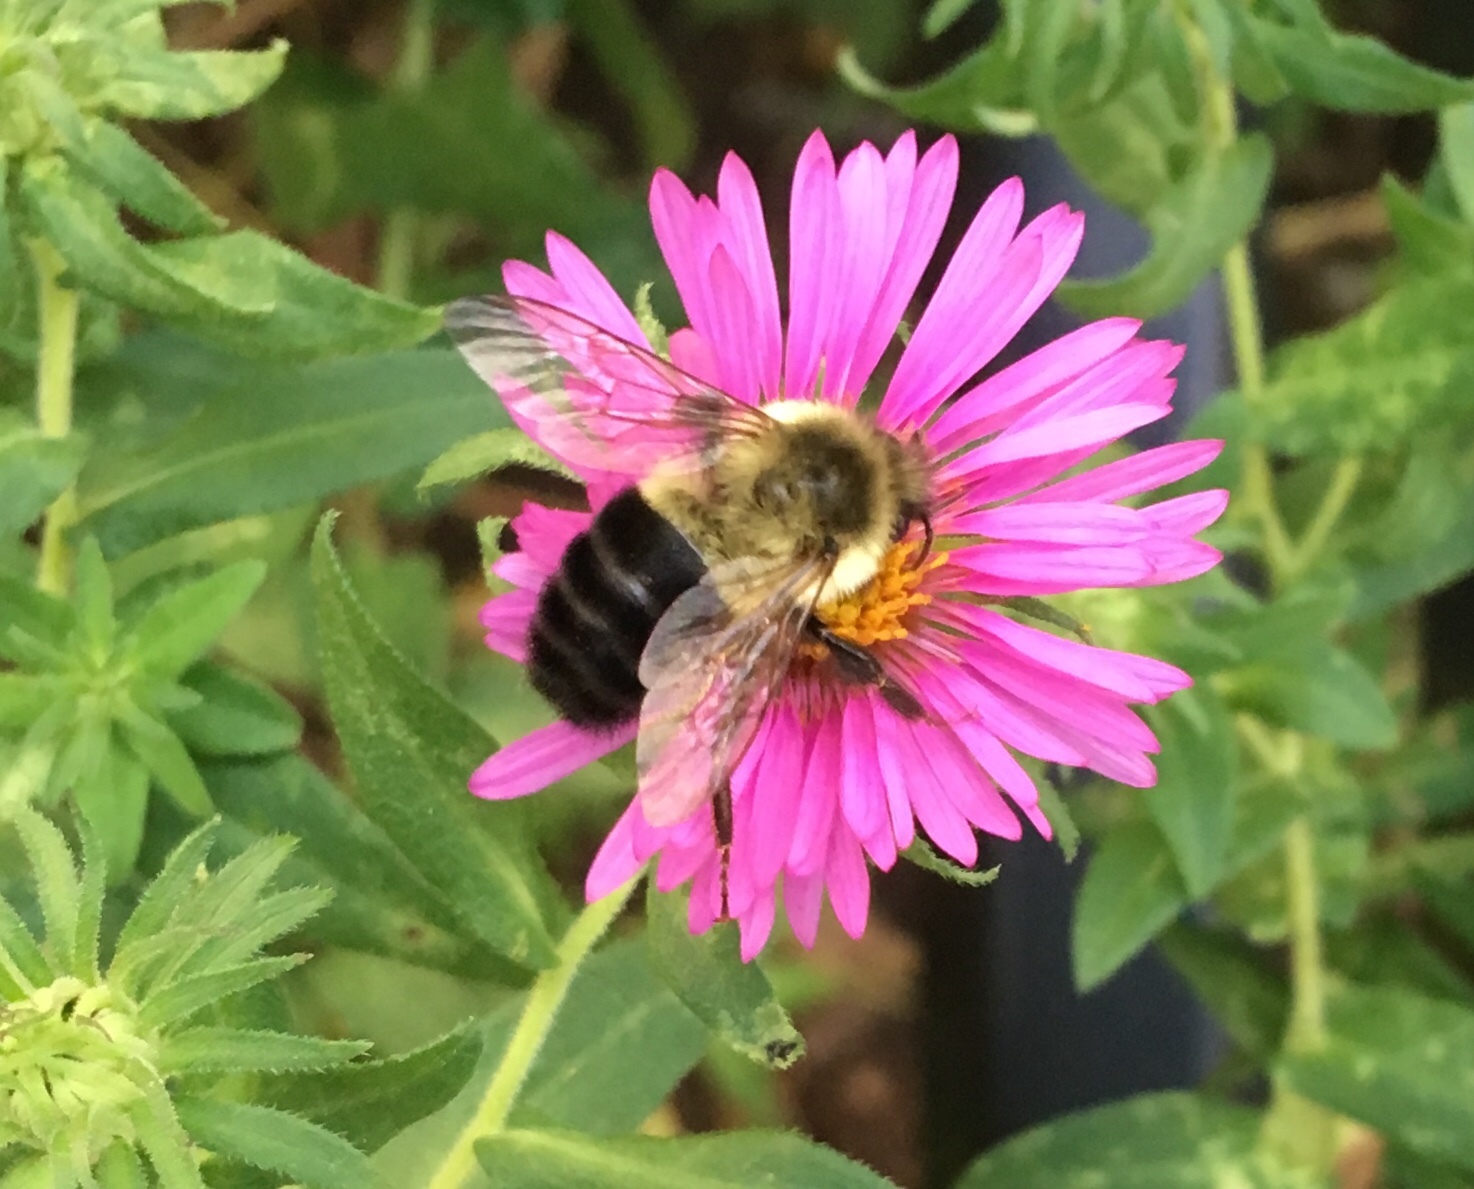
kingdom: Animalia
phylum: Arthropoda
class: Insecta
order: Hymenoptera
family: Apidae
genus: Bombus
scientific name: Bombus impatiens
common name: Common eastern bumble bee
